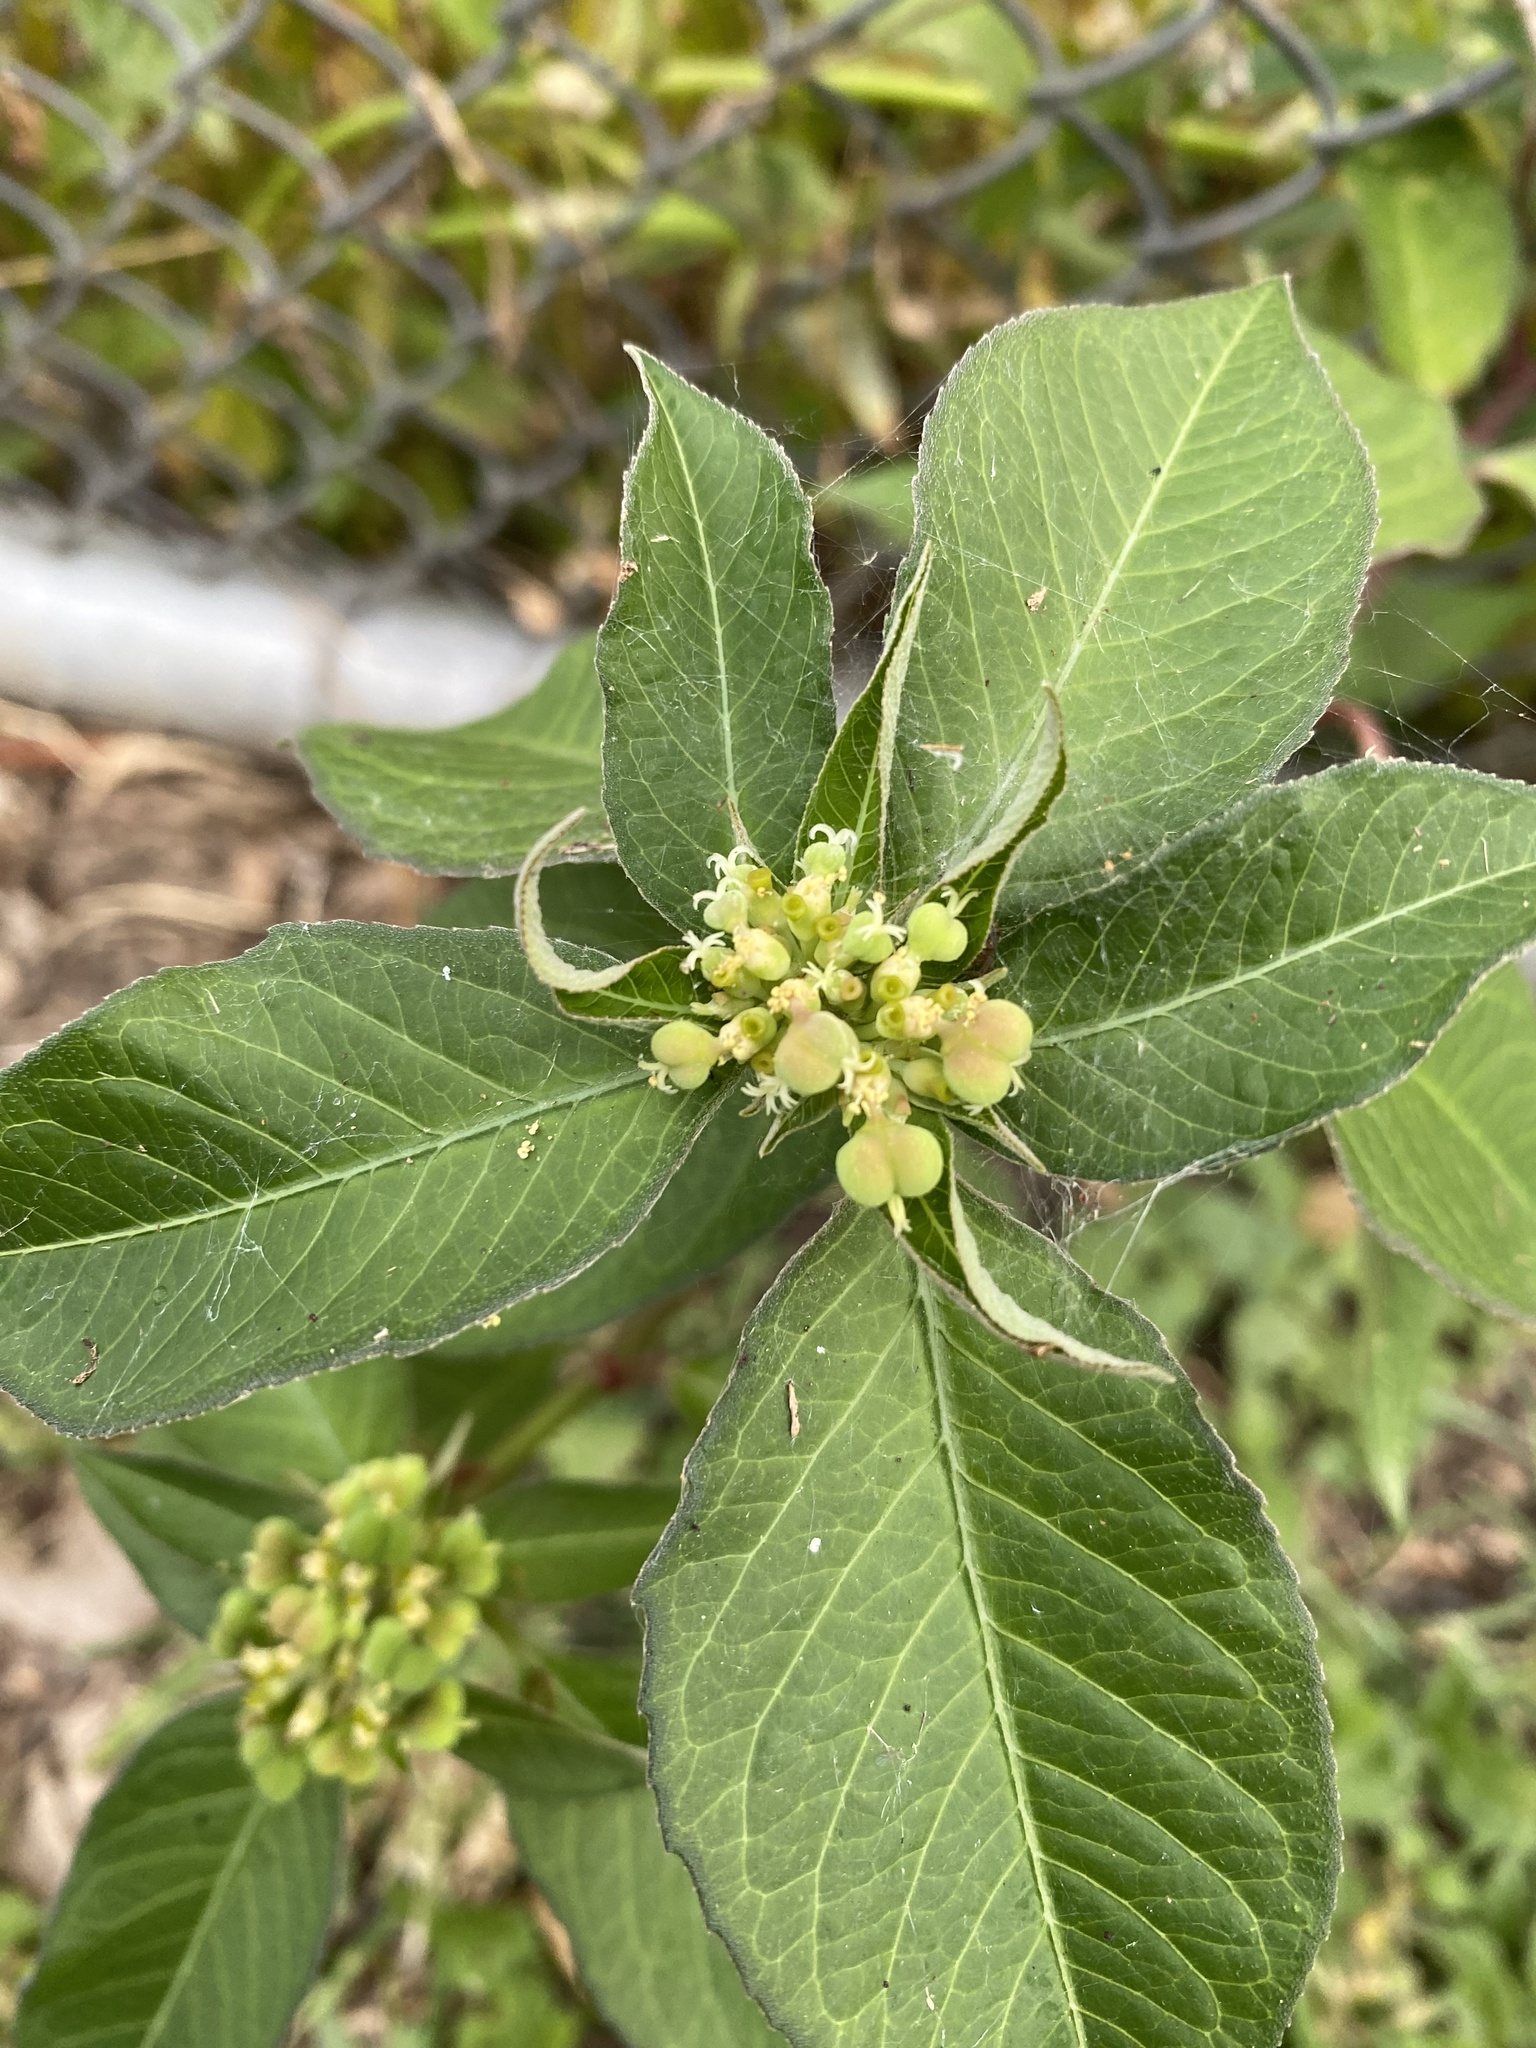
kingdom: Plantae
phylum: Tracheophyta
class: Magnoliopsida
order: Malpighiales
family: Euphorbiaceae
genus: Euphorbia
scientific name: Euphorbia heterophylla
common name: Mexican fireplant
